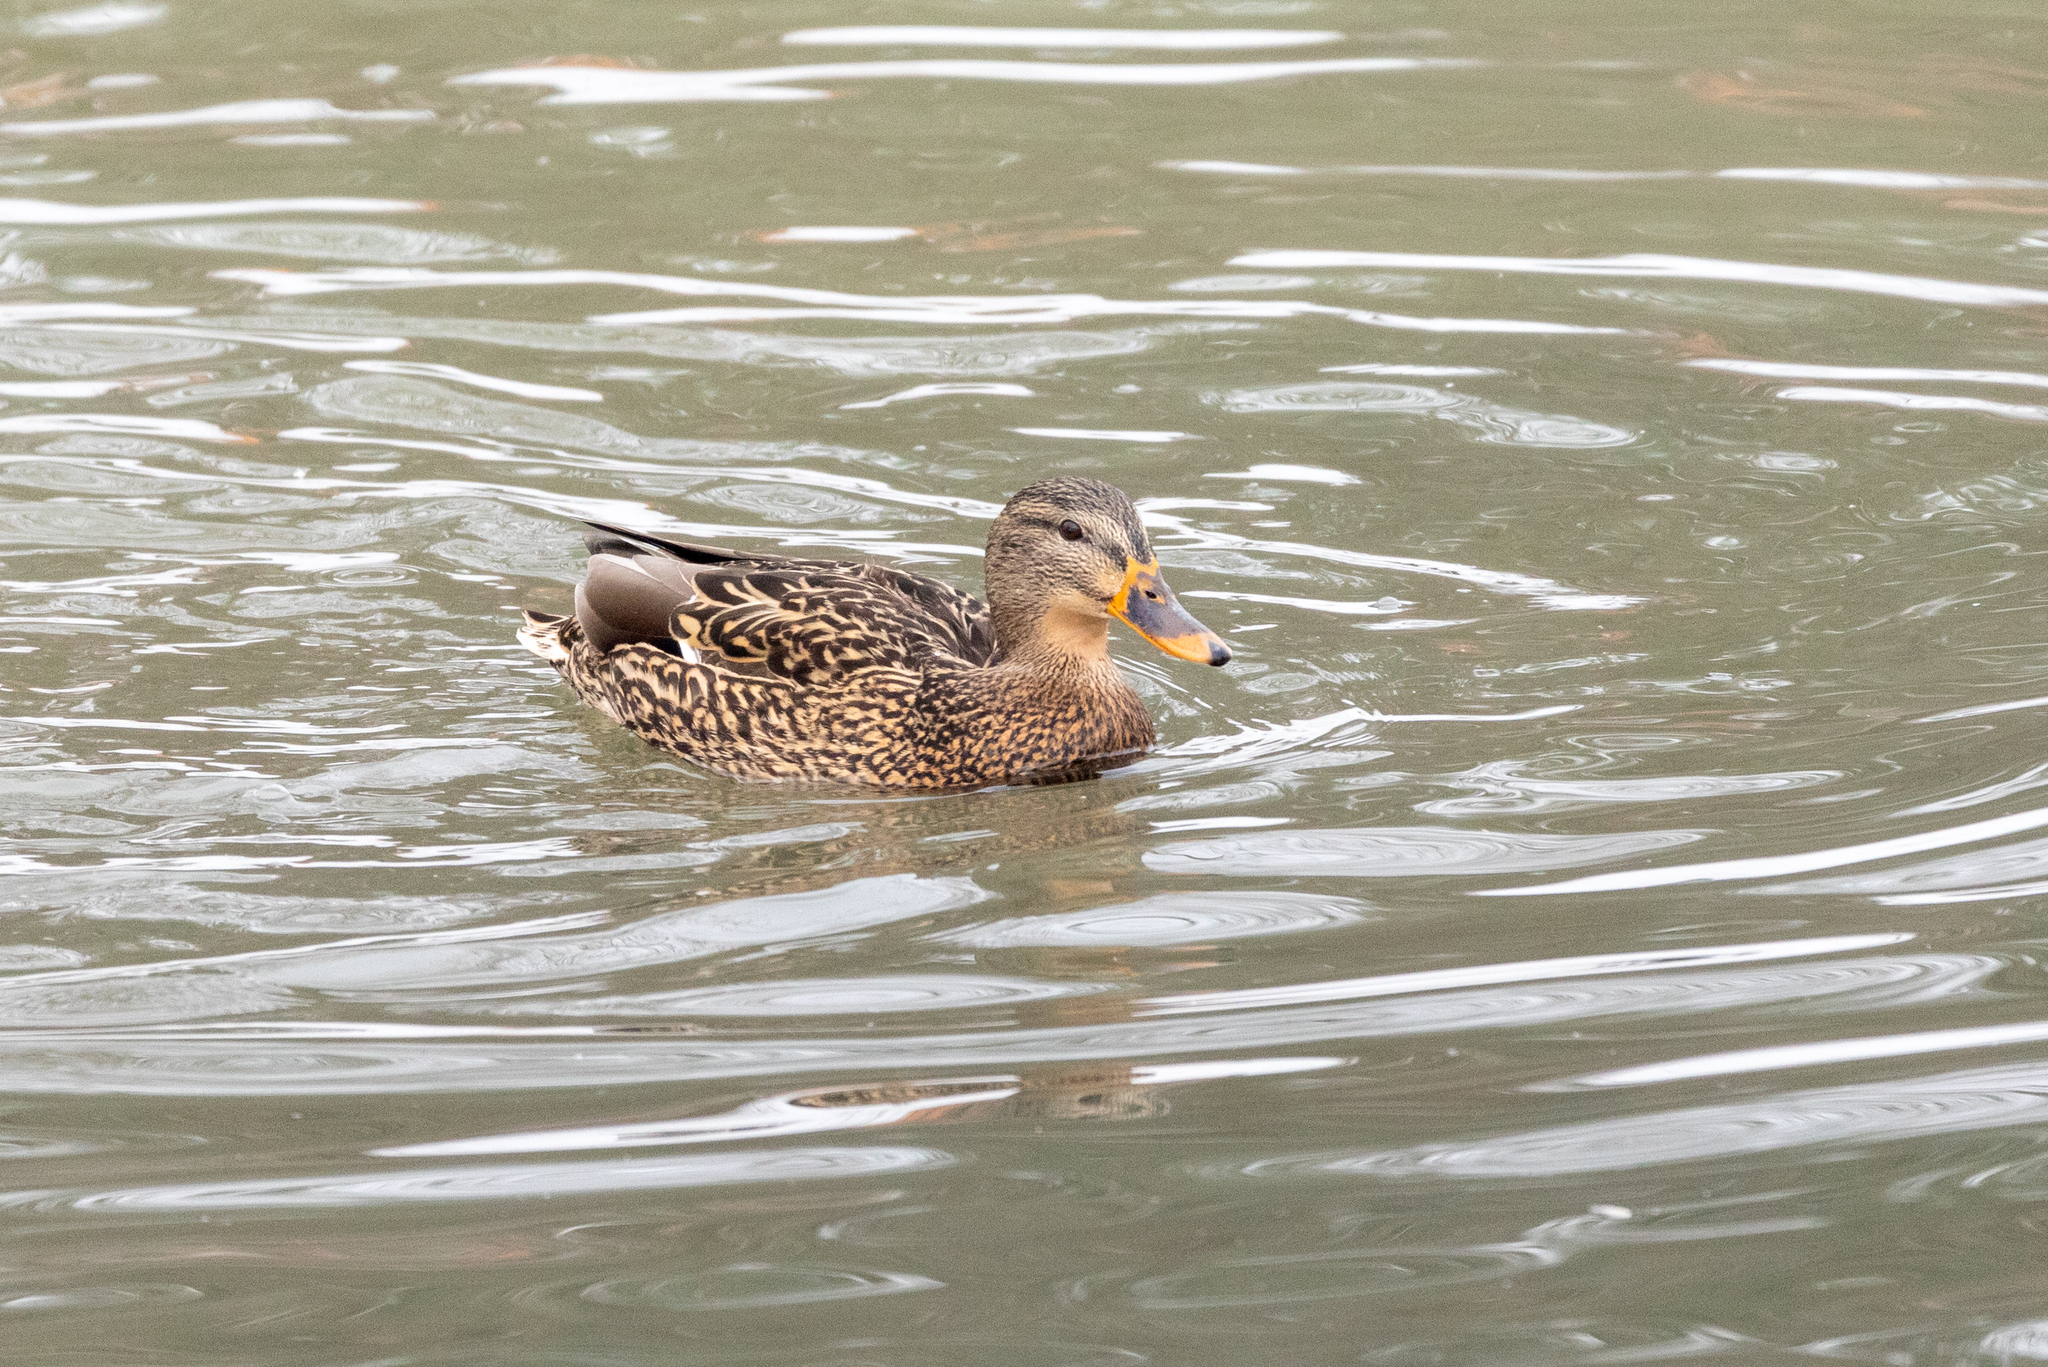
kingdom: Animalia
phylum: Chordata
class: Aves
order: Anseriformes
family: Anatidae
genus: Anas
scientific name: Anas platyrhynchos
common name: Mallard
